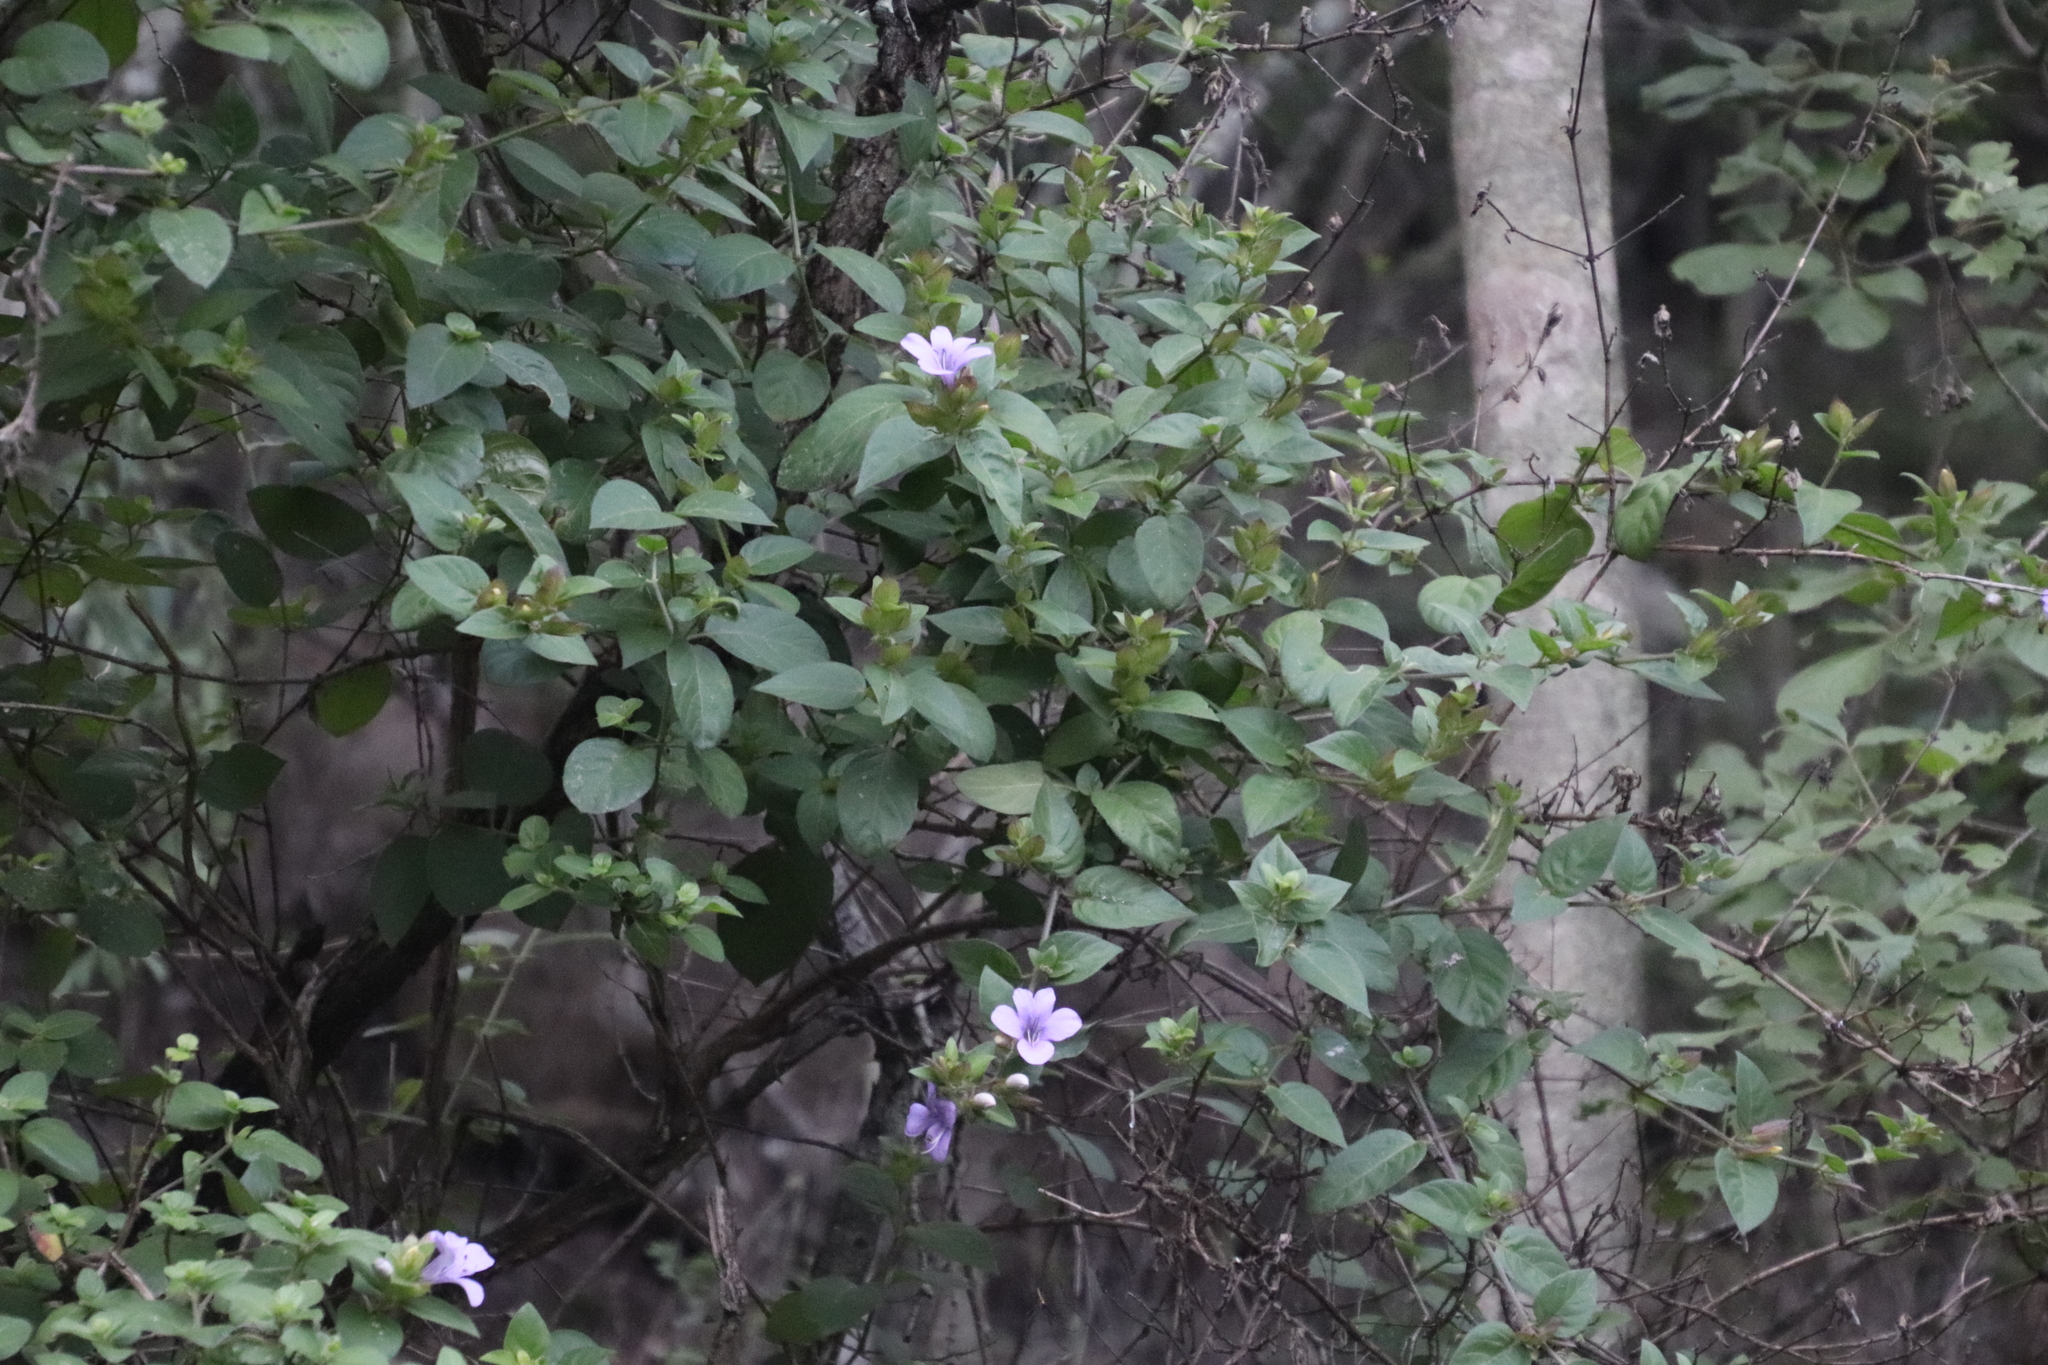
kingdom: Plantae
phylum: Tracheophyta
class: Magnoliopsida
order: Lamiales
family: Acanthaceae
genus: Barleria
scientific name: Barleria gueinzii
